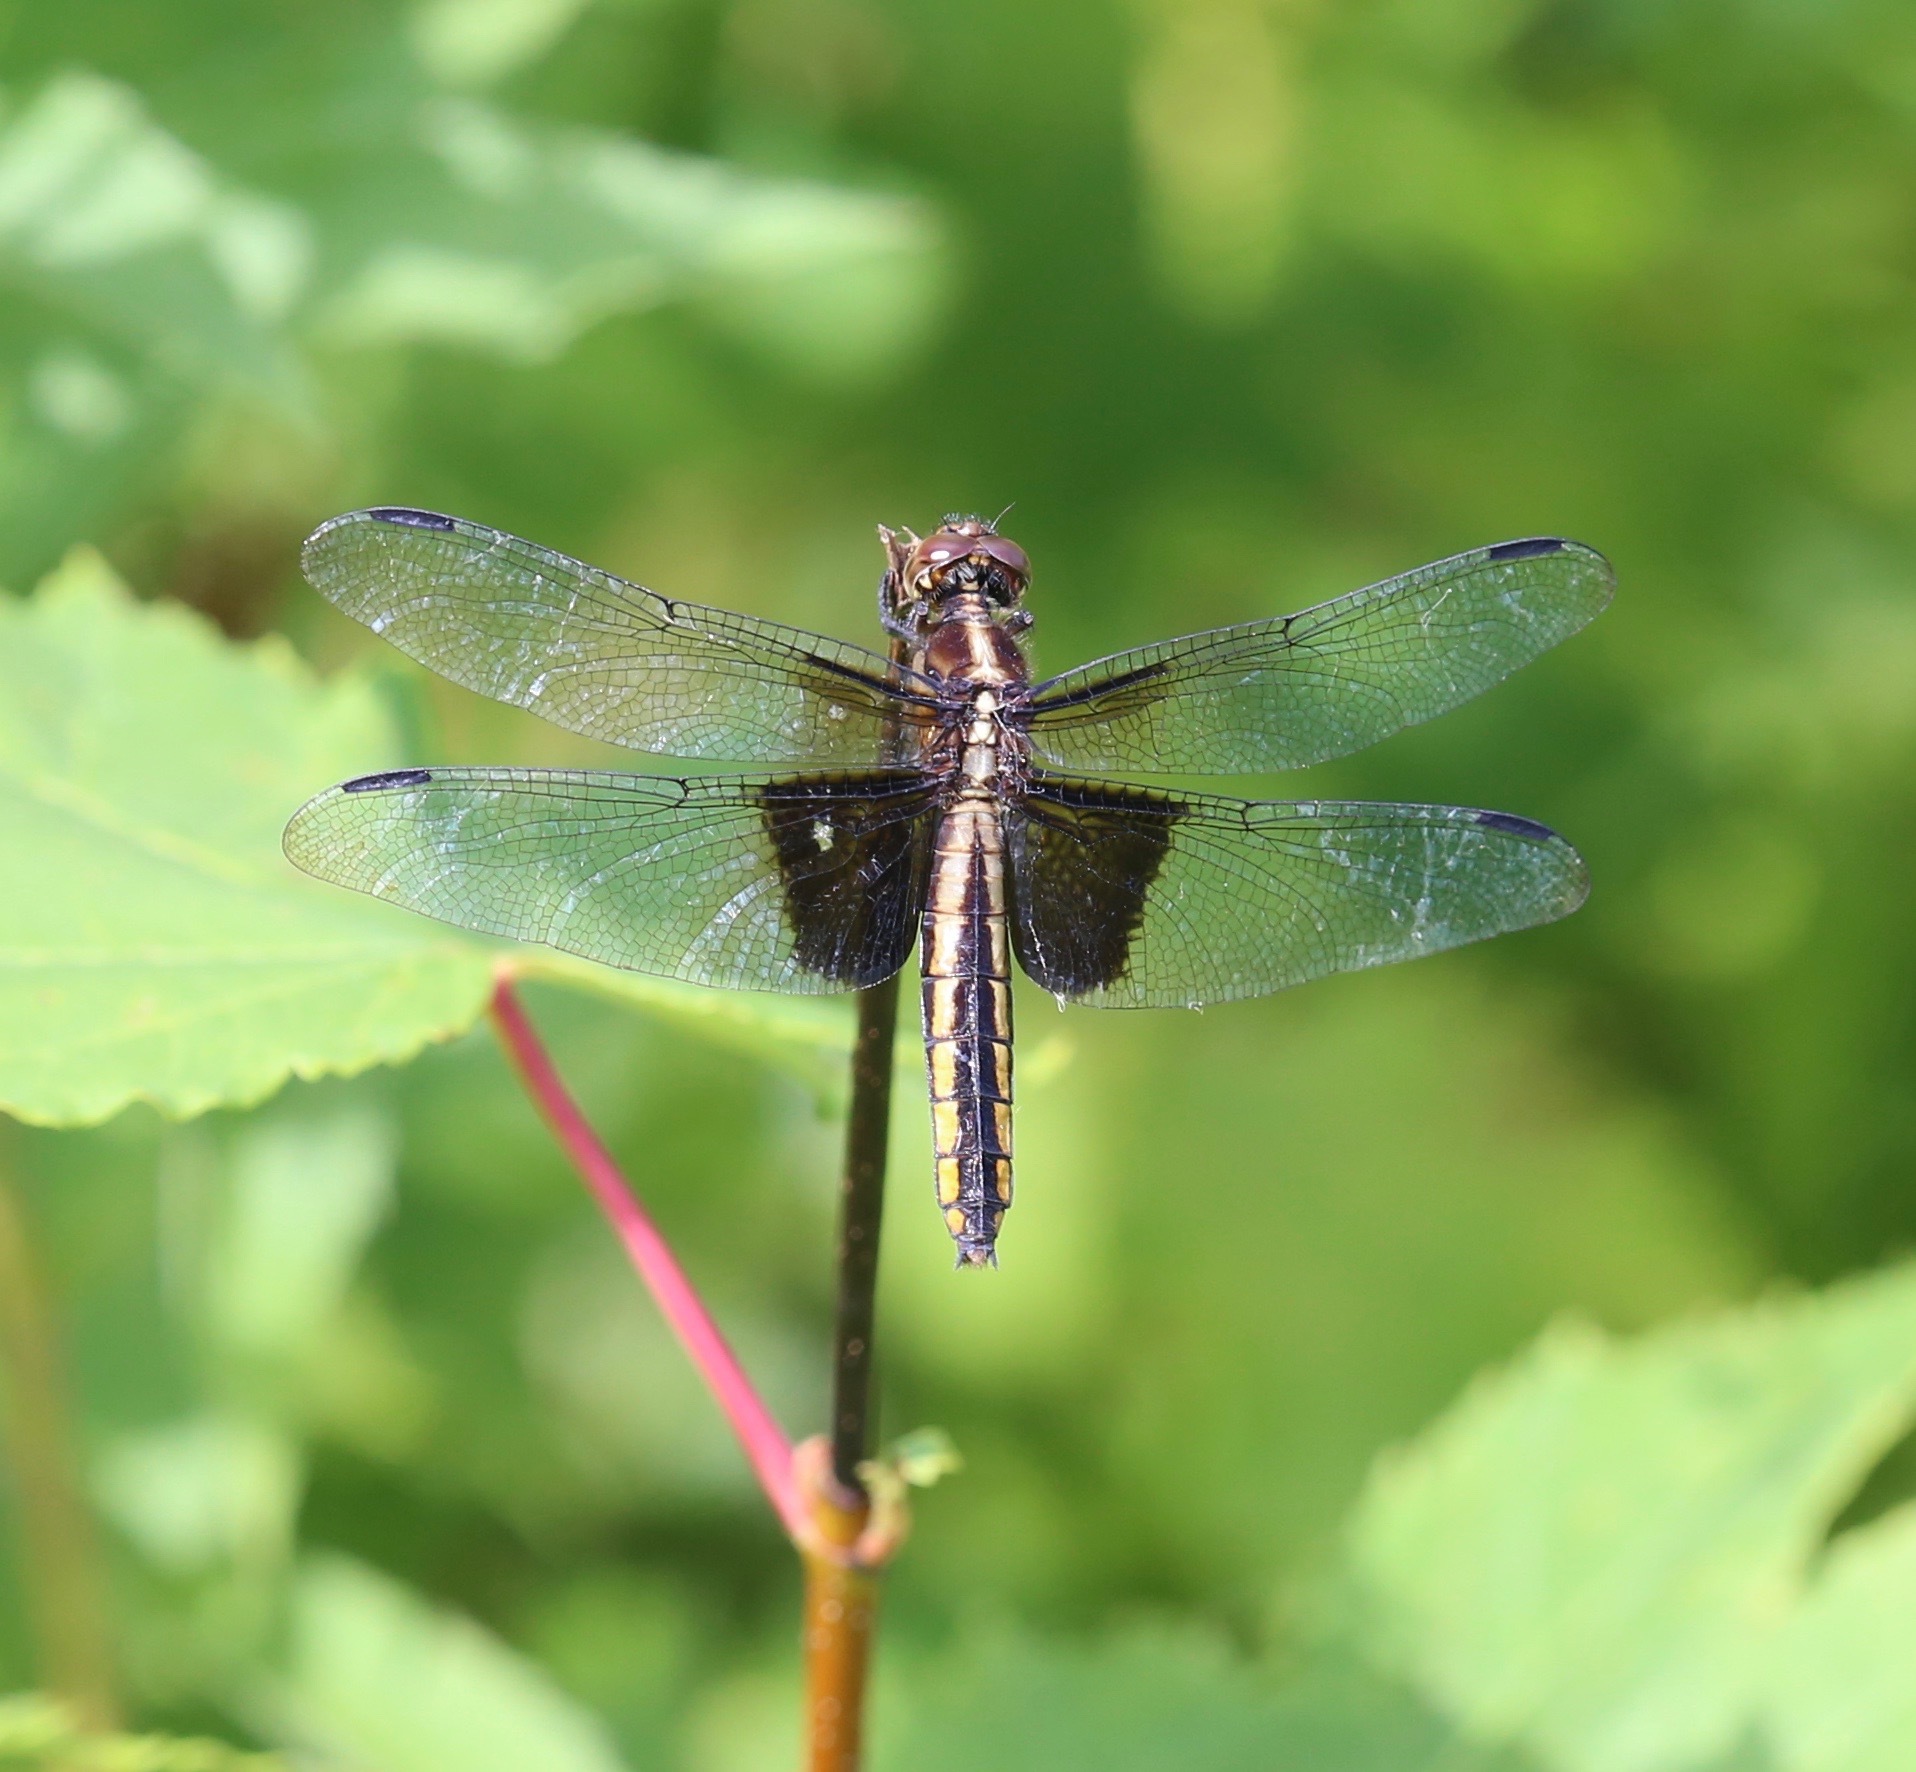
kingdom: Animalia
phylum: Arthropoda
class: Insecta
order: Odonata
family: Libellulidae
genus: Libellula
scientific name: Libellula luctuosa
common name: Widow skimmer
